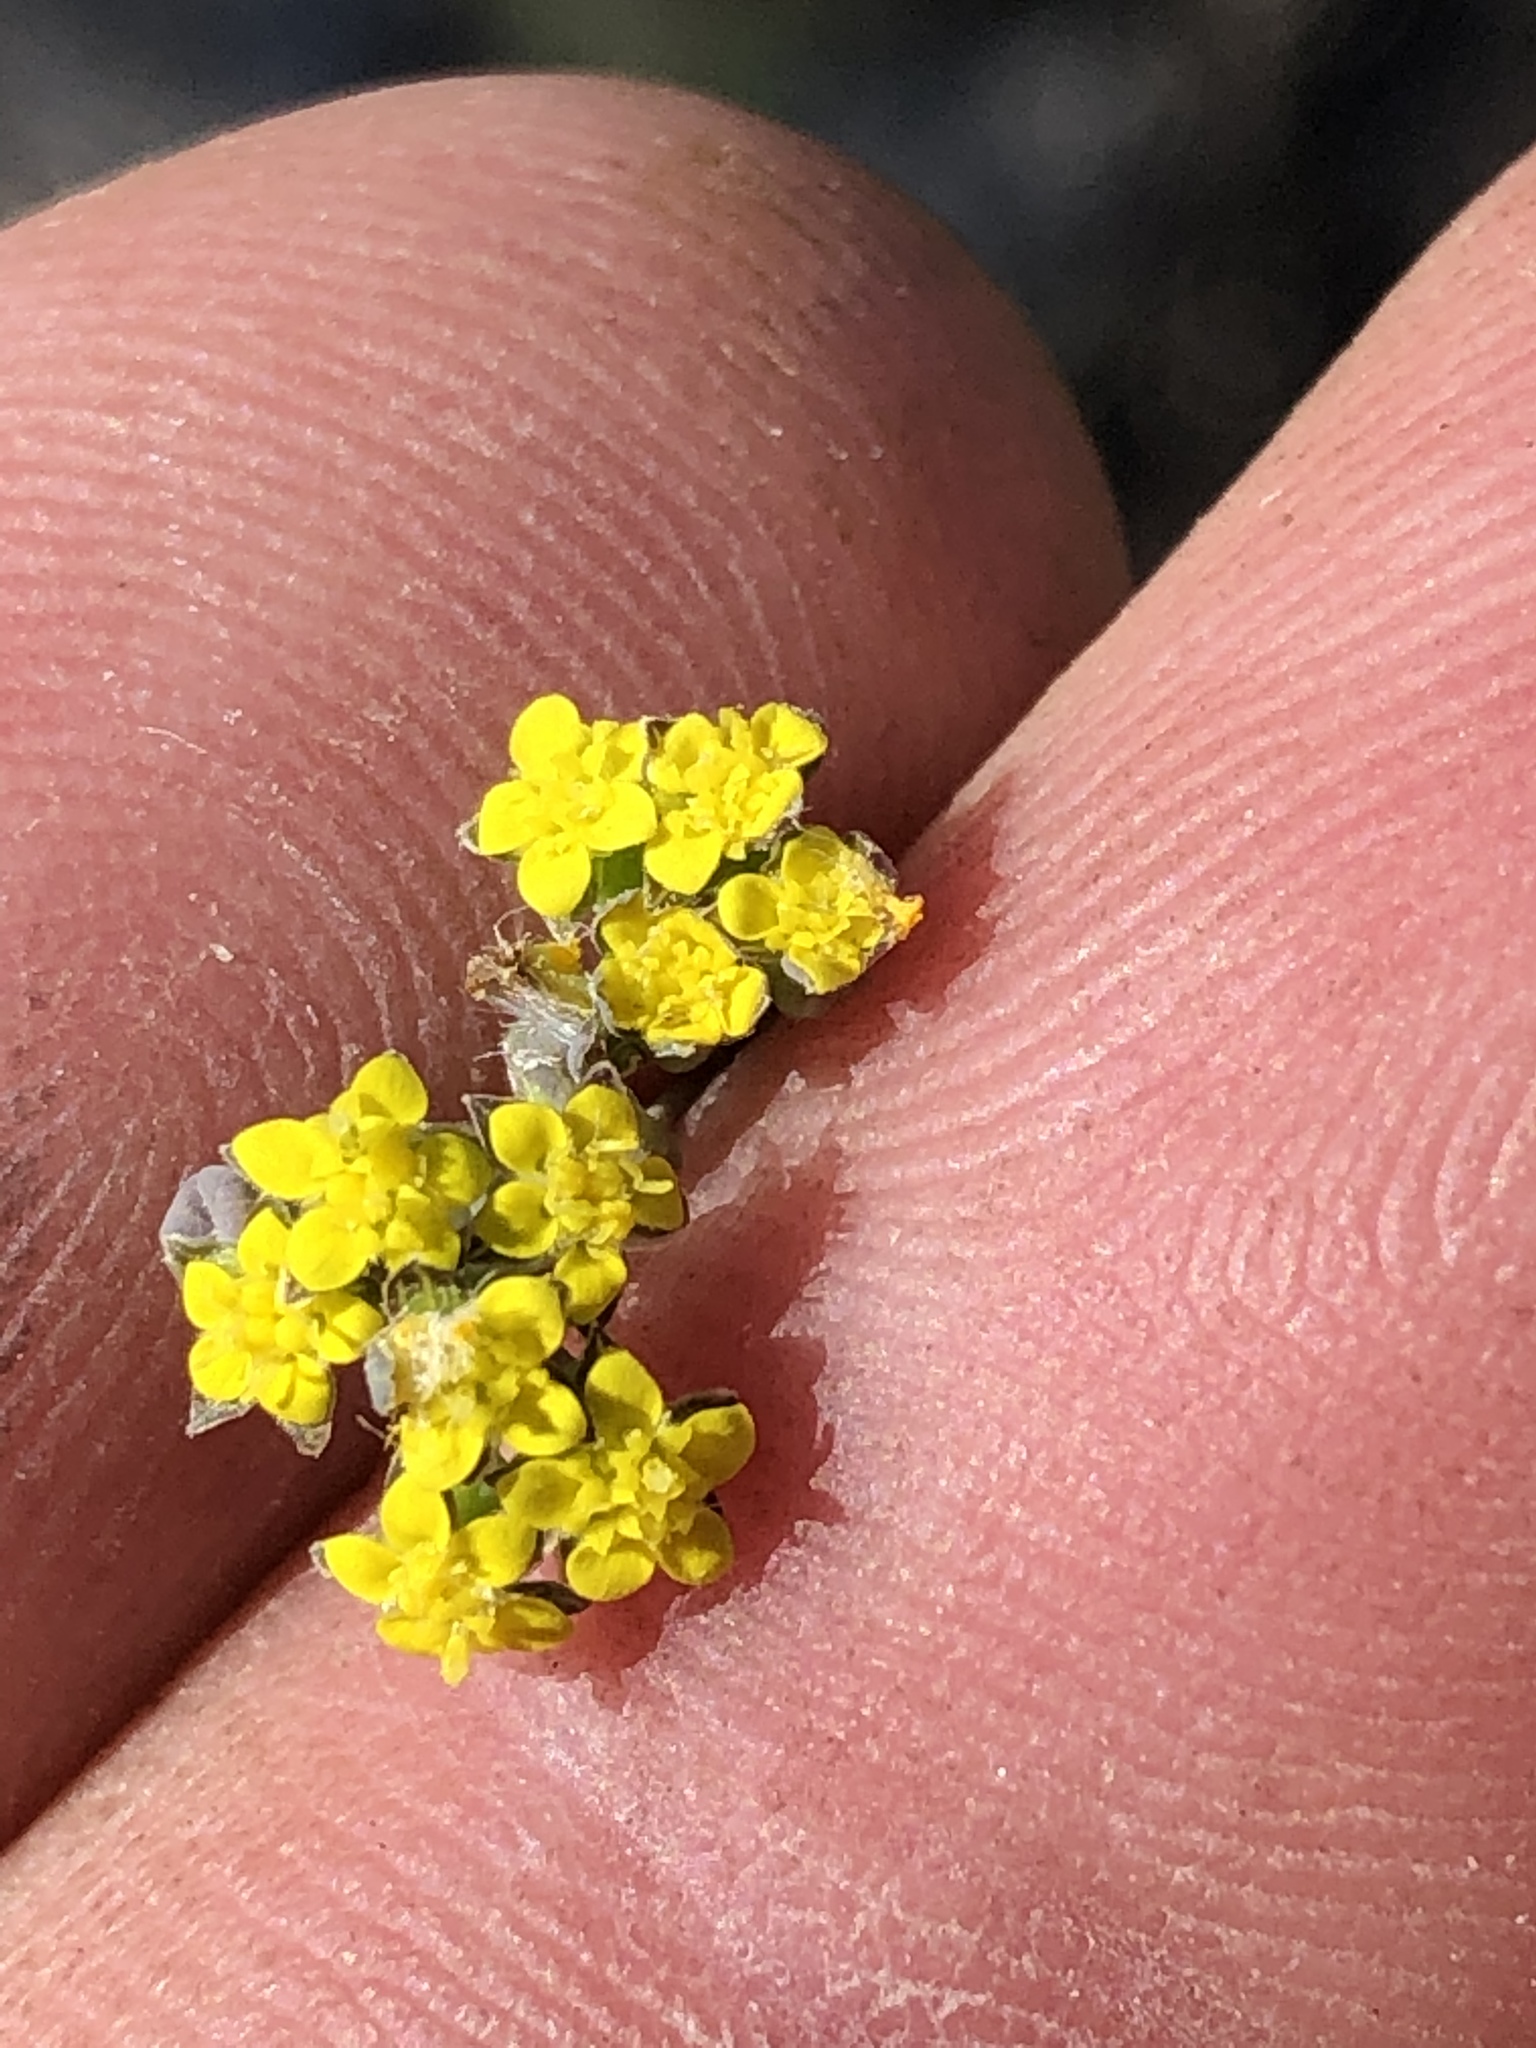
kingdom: Plantae
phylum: Tracheophyta
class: Magnoliopsida
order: Asterales
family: Asteraceae
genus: Gymnodiscus
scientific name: Gymnodiscus capillaris
